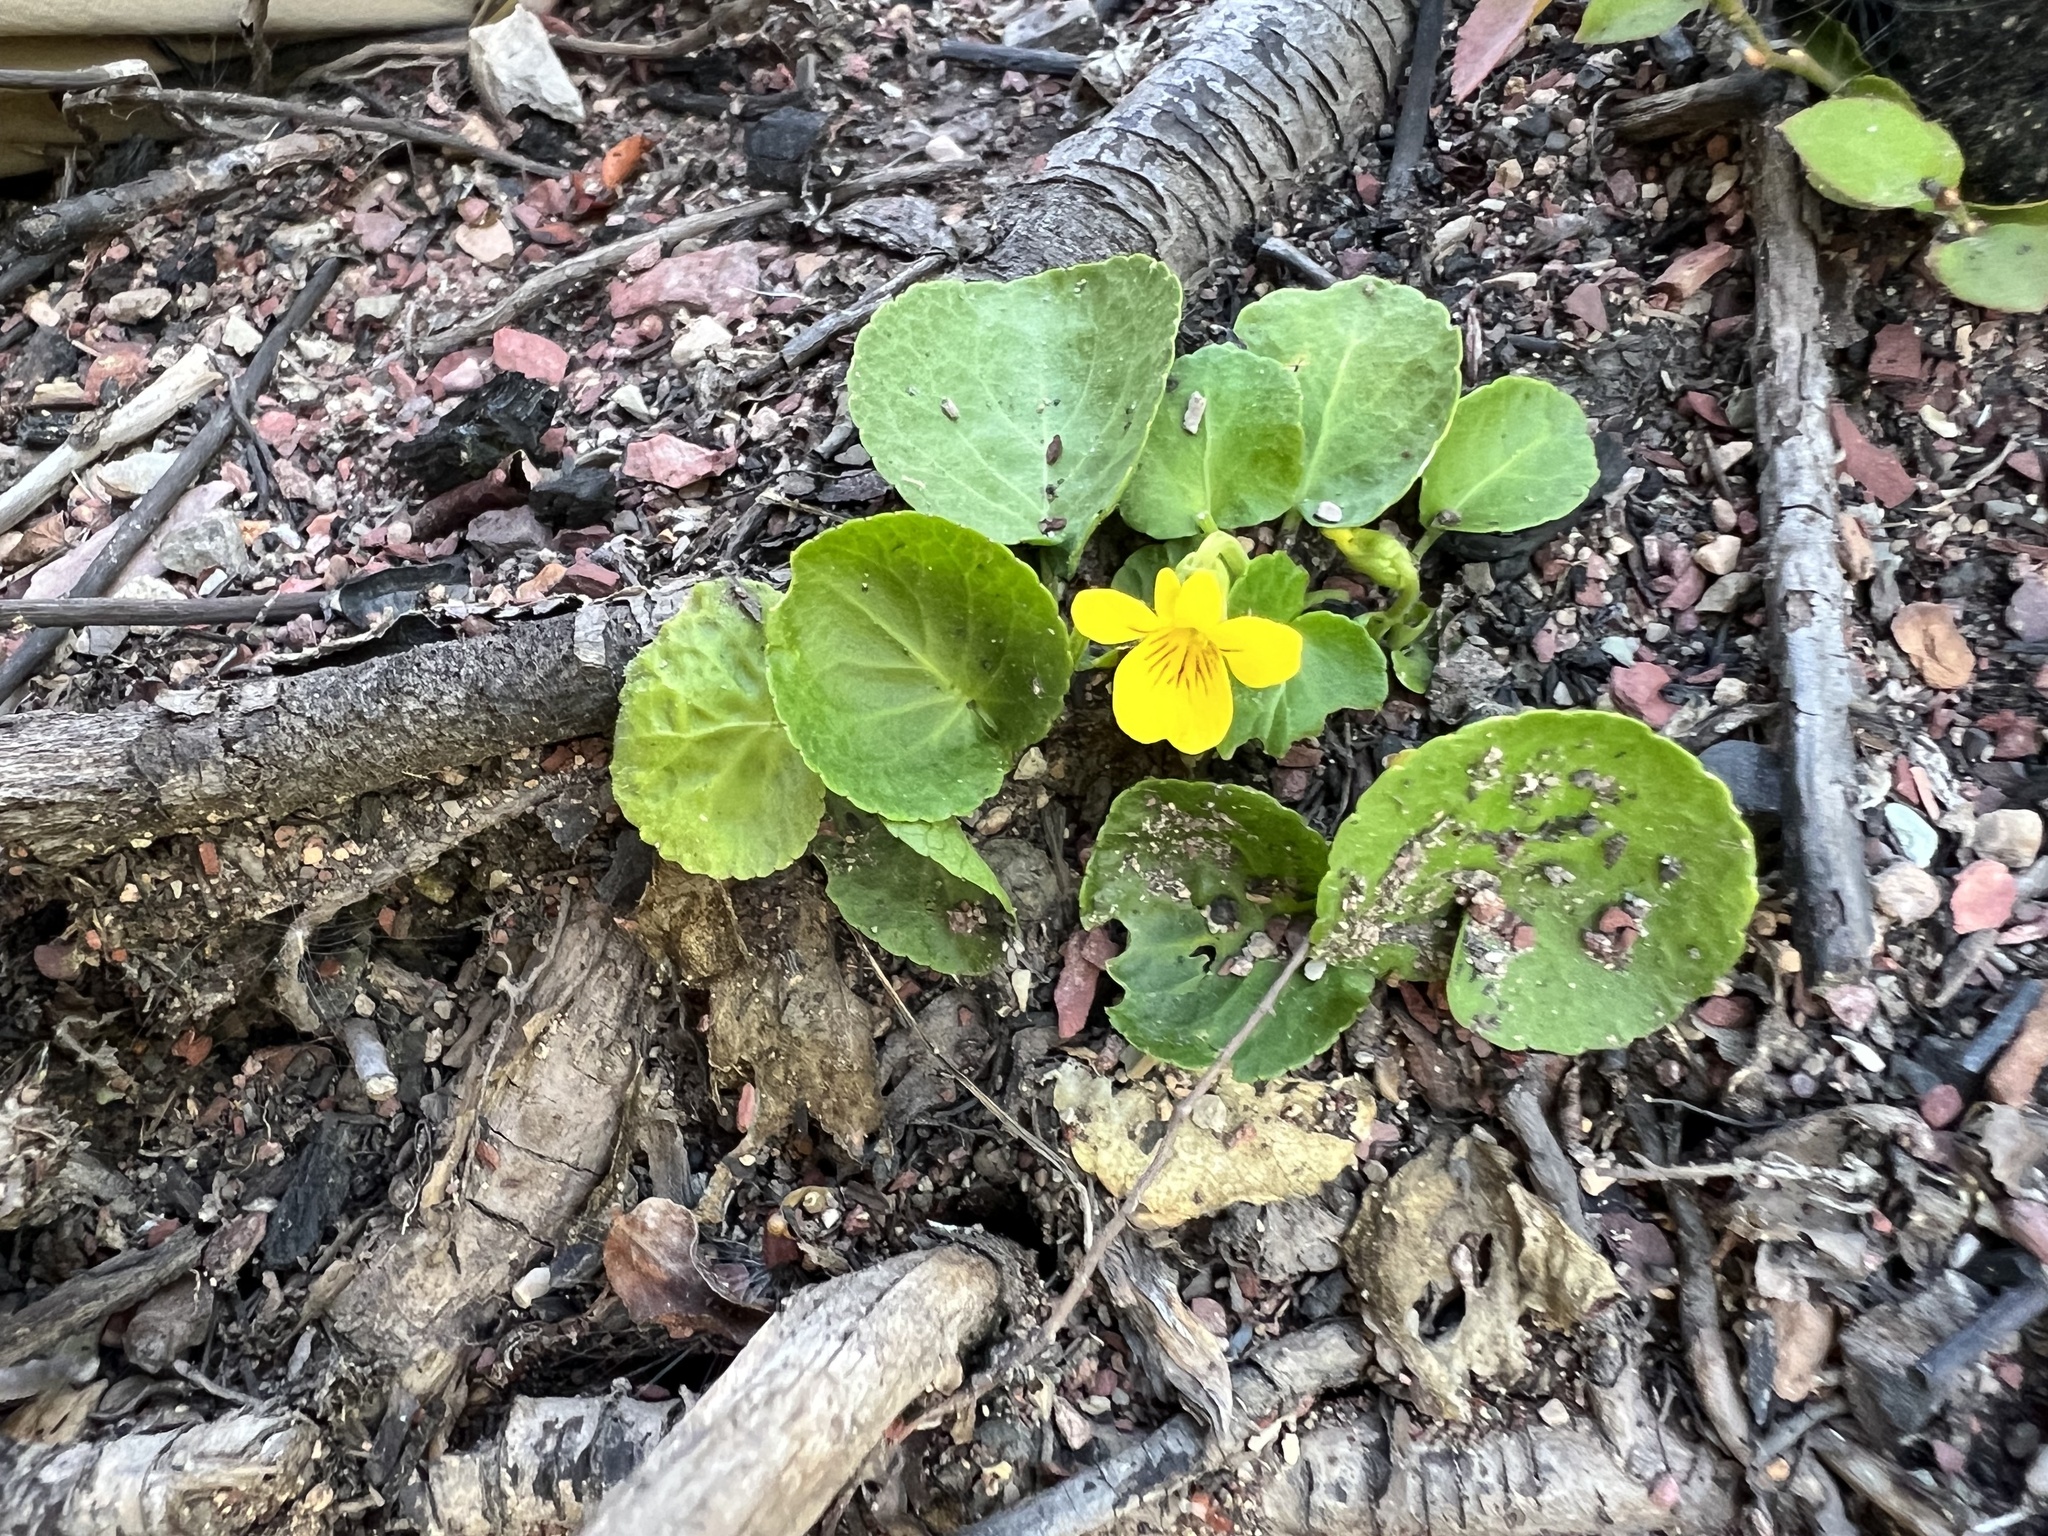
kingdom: Plantae
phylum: Tracheophyta
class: Magnoliopsida
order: Malpighiales
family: Violaceae
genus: Viola
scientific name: Viola orbiculata
